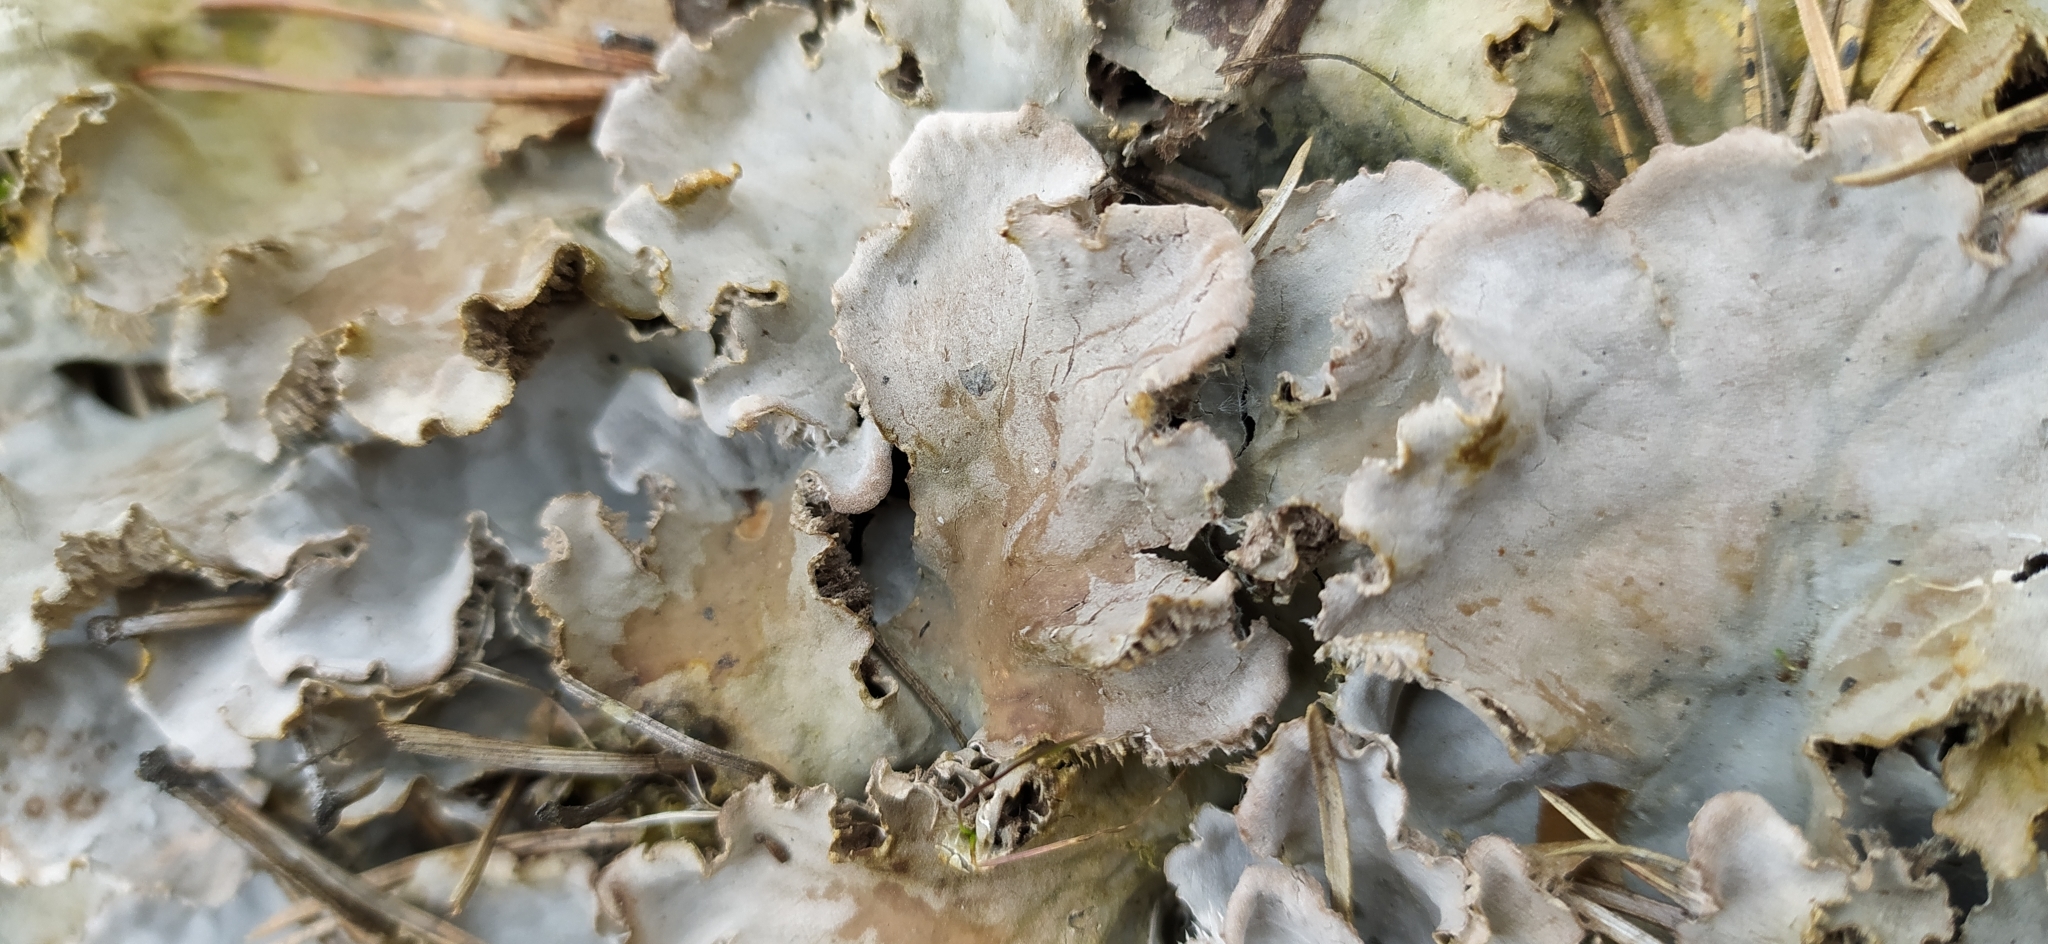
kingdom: Fungi
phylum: Ascomycota
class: Lecanoromycetes
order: Peltigerales
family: Peltigeraceae
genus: Peltigera
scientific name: Peltigera canina
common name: Dog pelt lichen
